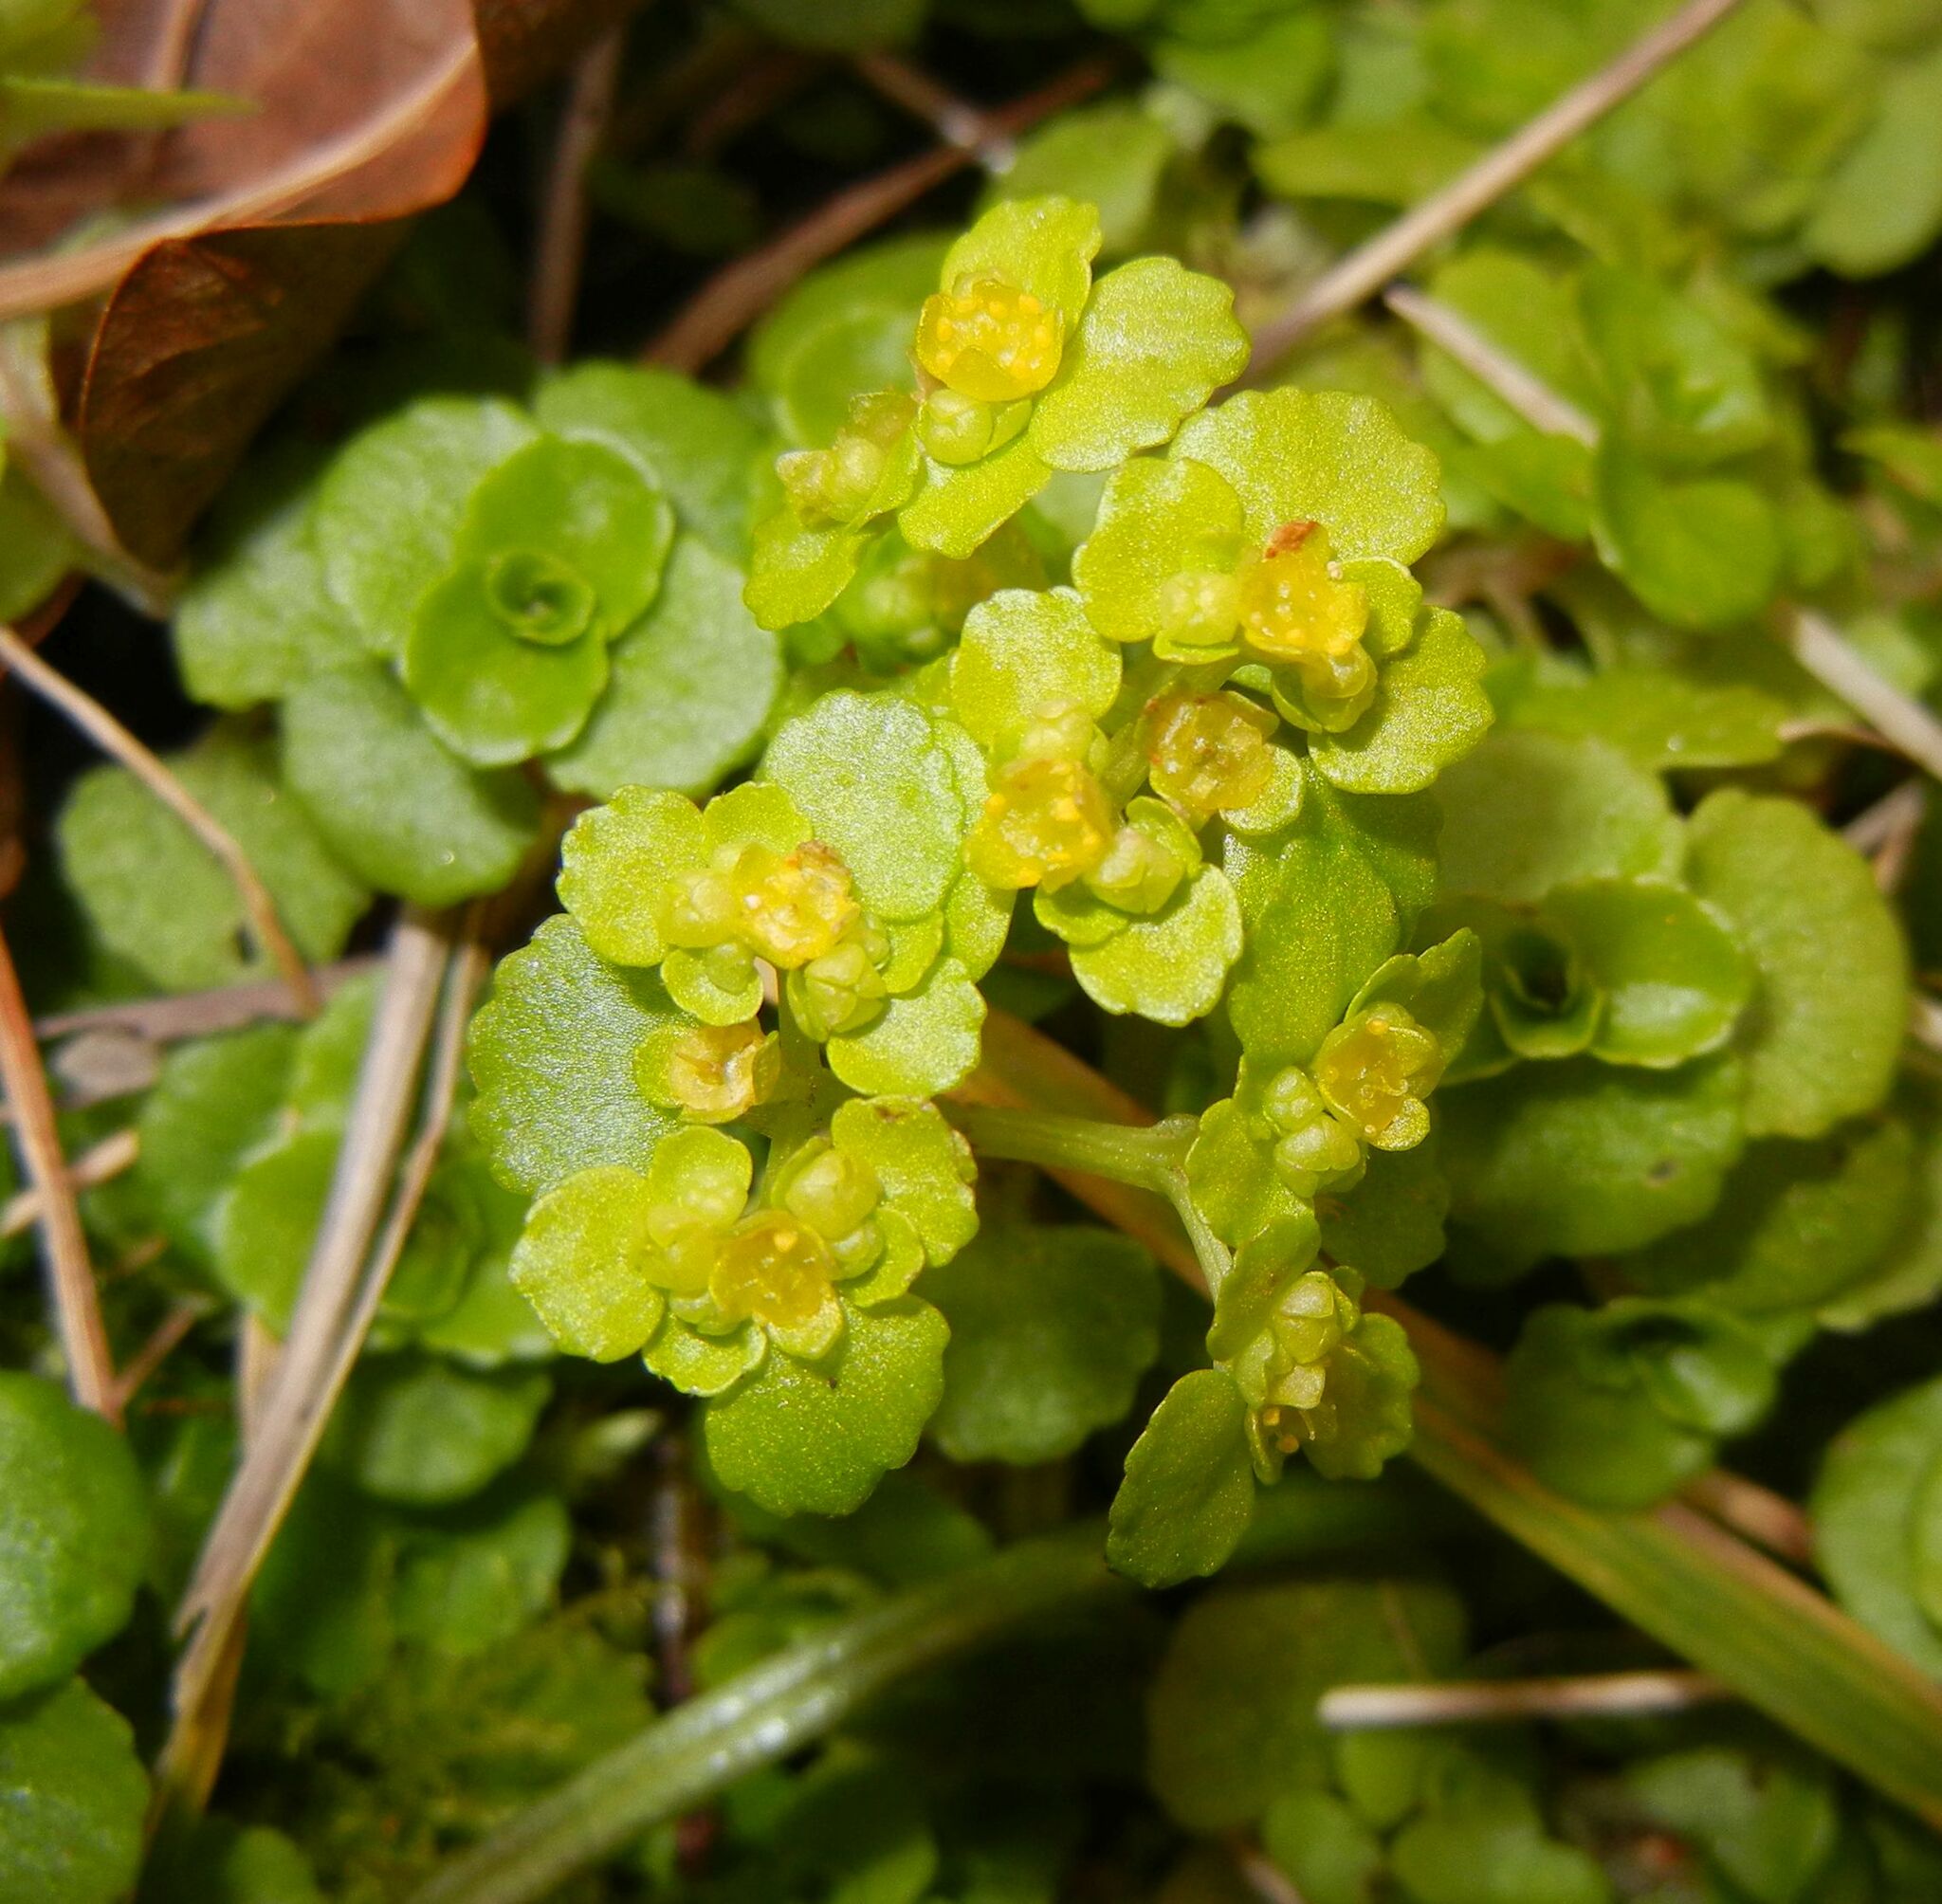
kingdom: Plantae
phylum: Tracheophyta
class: Magnoliopsida
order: Saxifragales
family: Saxifragaceae
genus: Chrysosplenium
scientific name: Chrysosplenium oppositifolium
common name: Opposite-leaved golden-saxifrage
